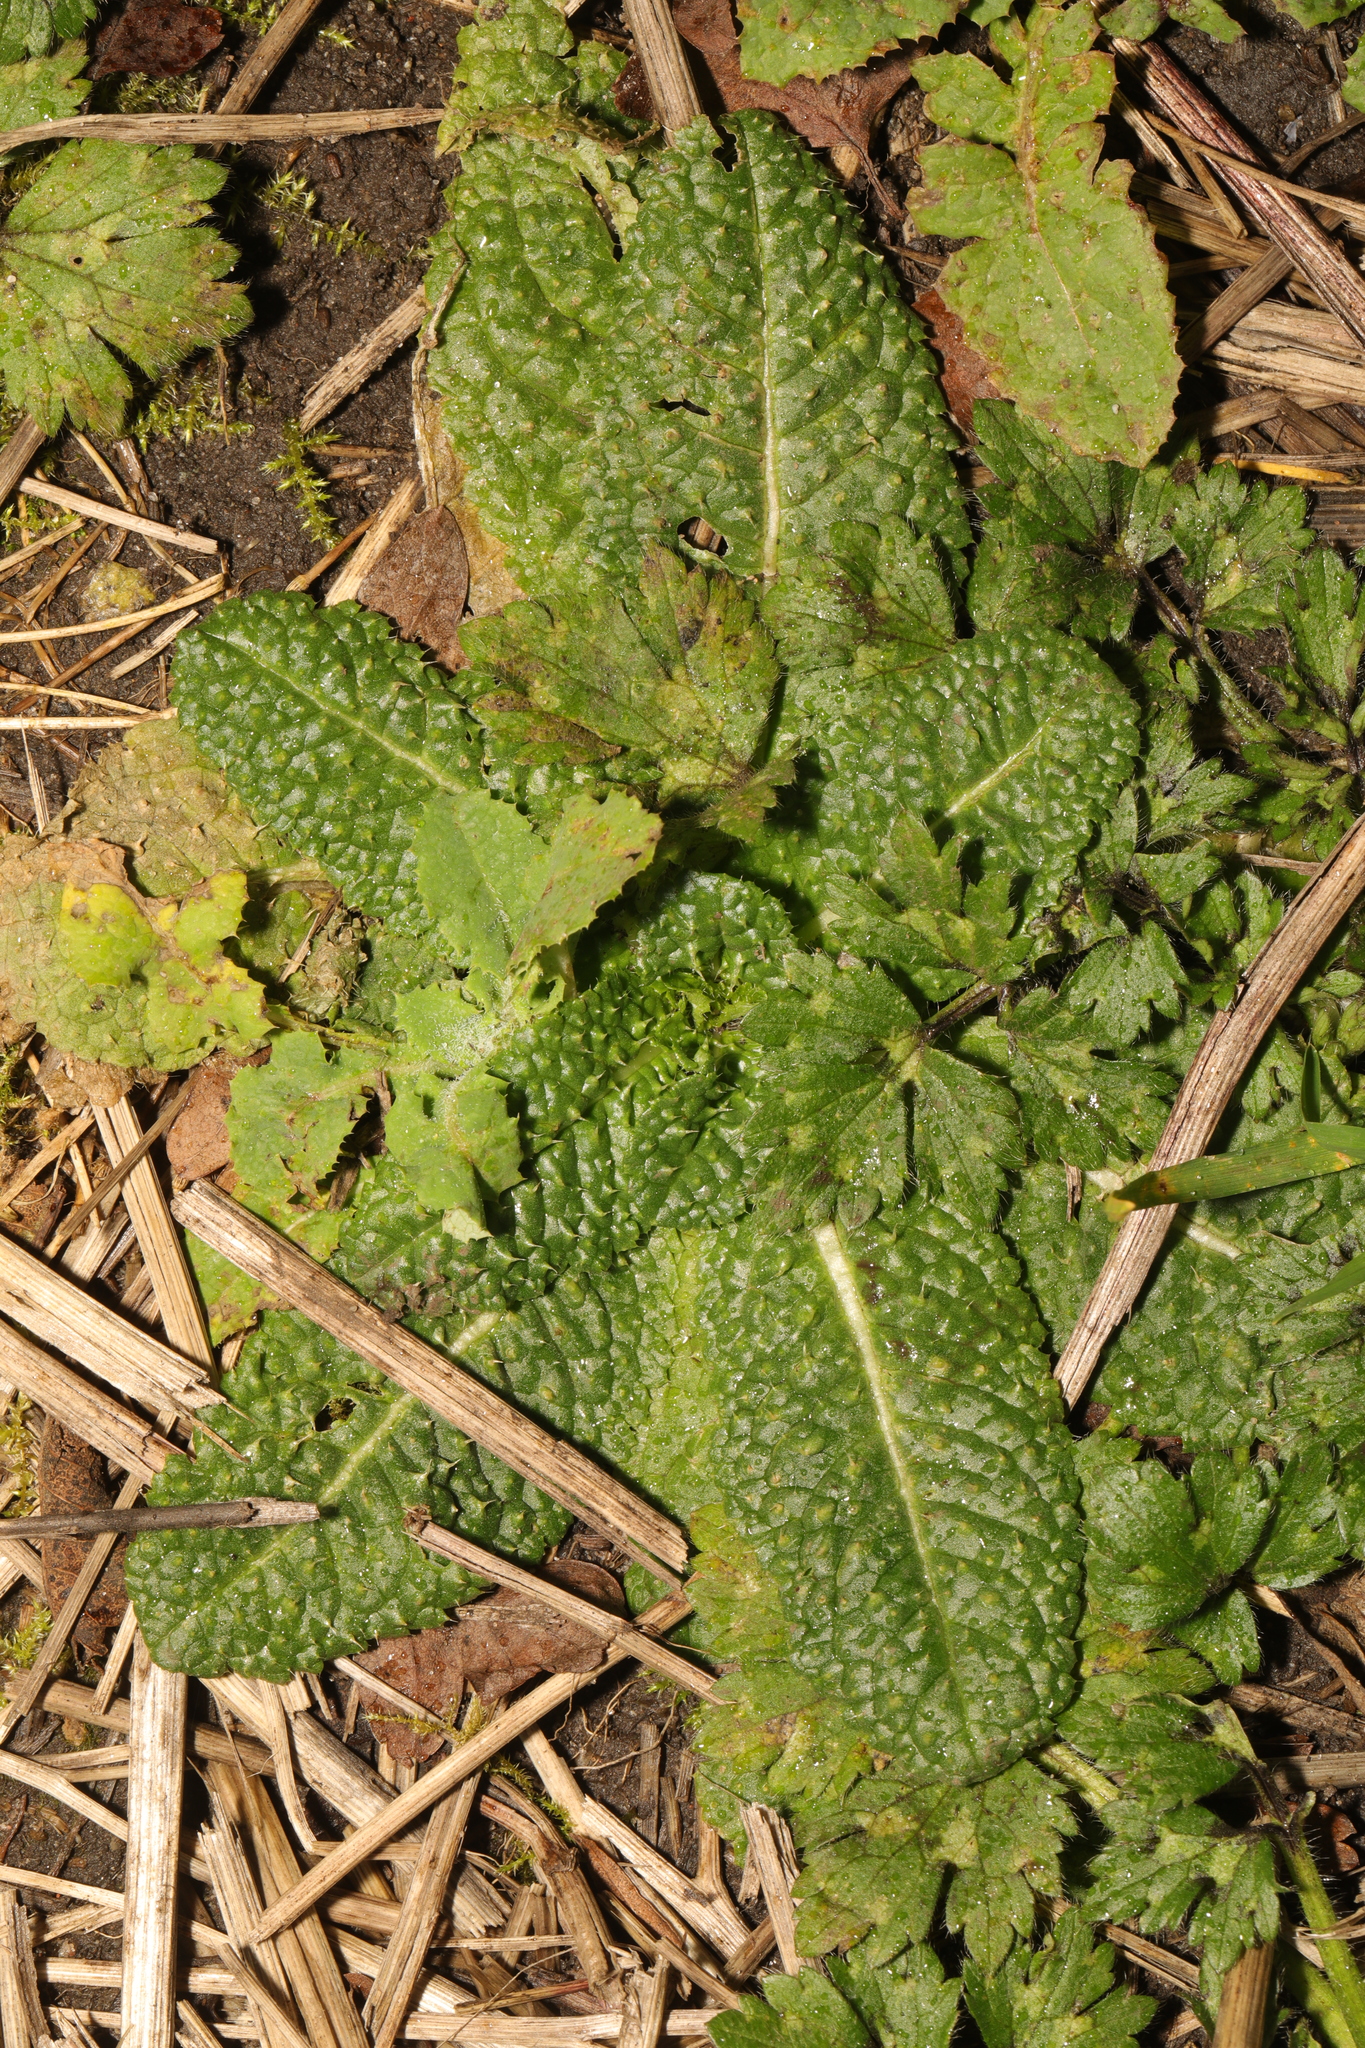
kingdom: Plantae
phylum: Tracheophyta
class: Magnoliopsida
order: Dipsacales
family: Caprifoliaceae
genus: Dipsacus
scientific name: Dipsacus fullonum
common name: Teasel
